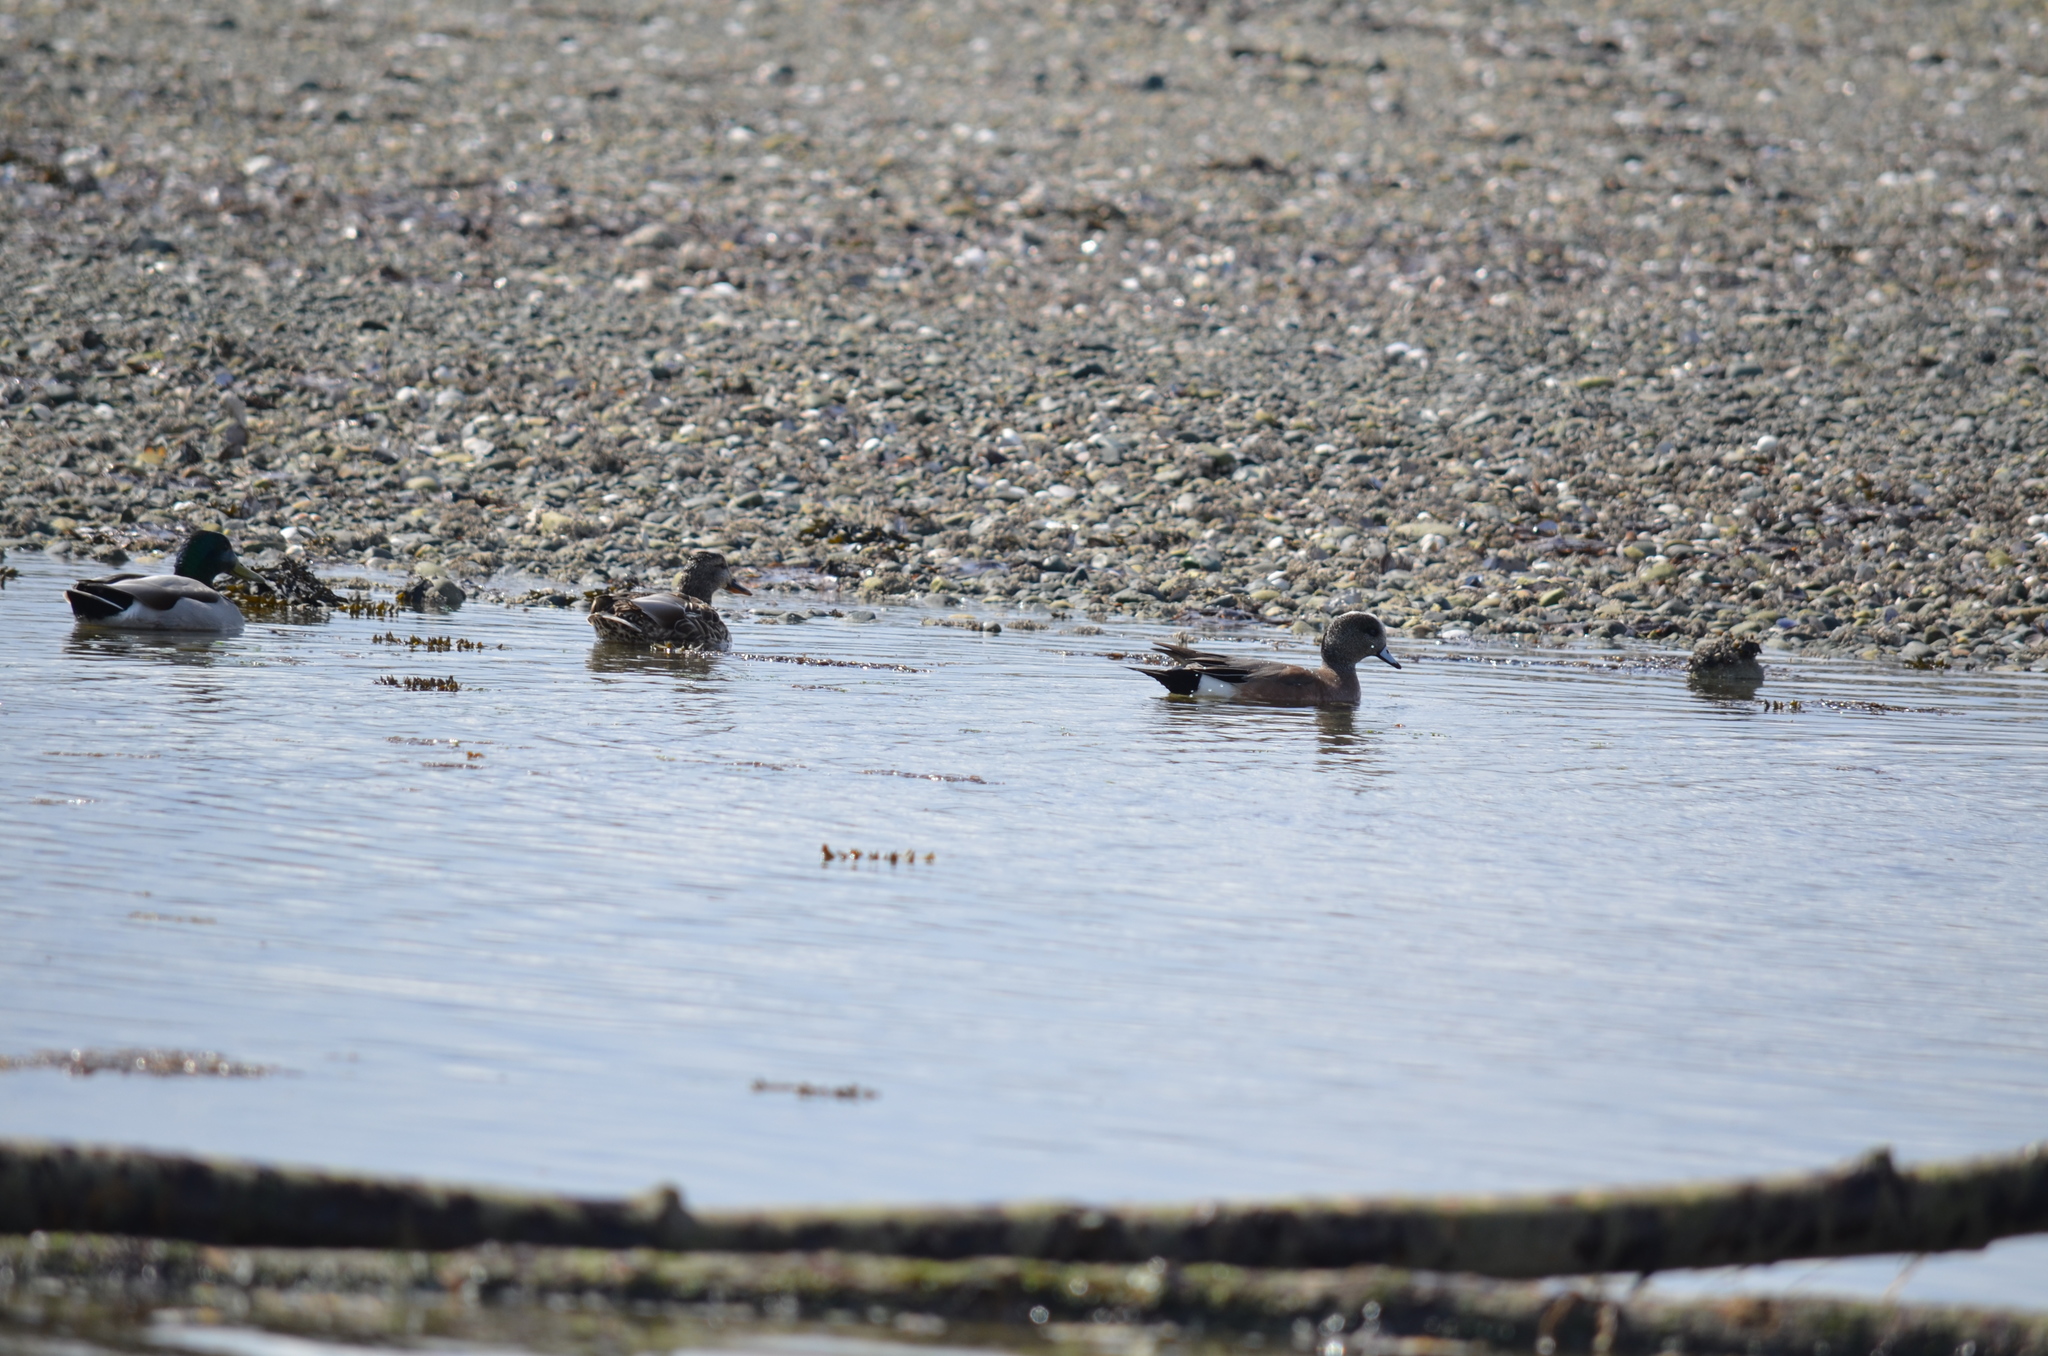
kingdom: Animalia
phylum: Chordata
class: Aves
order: Anseriformes
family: Anatidae
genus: Anas
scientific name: Anas platyrhynchos
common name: Mallard
